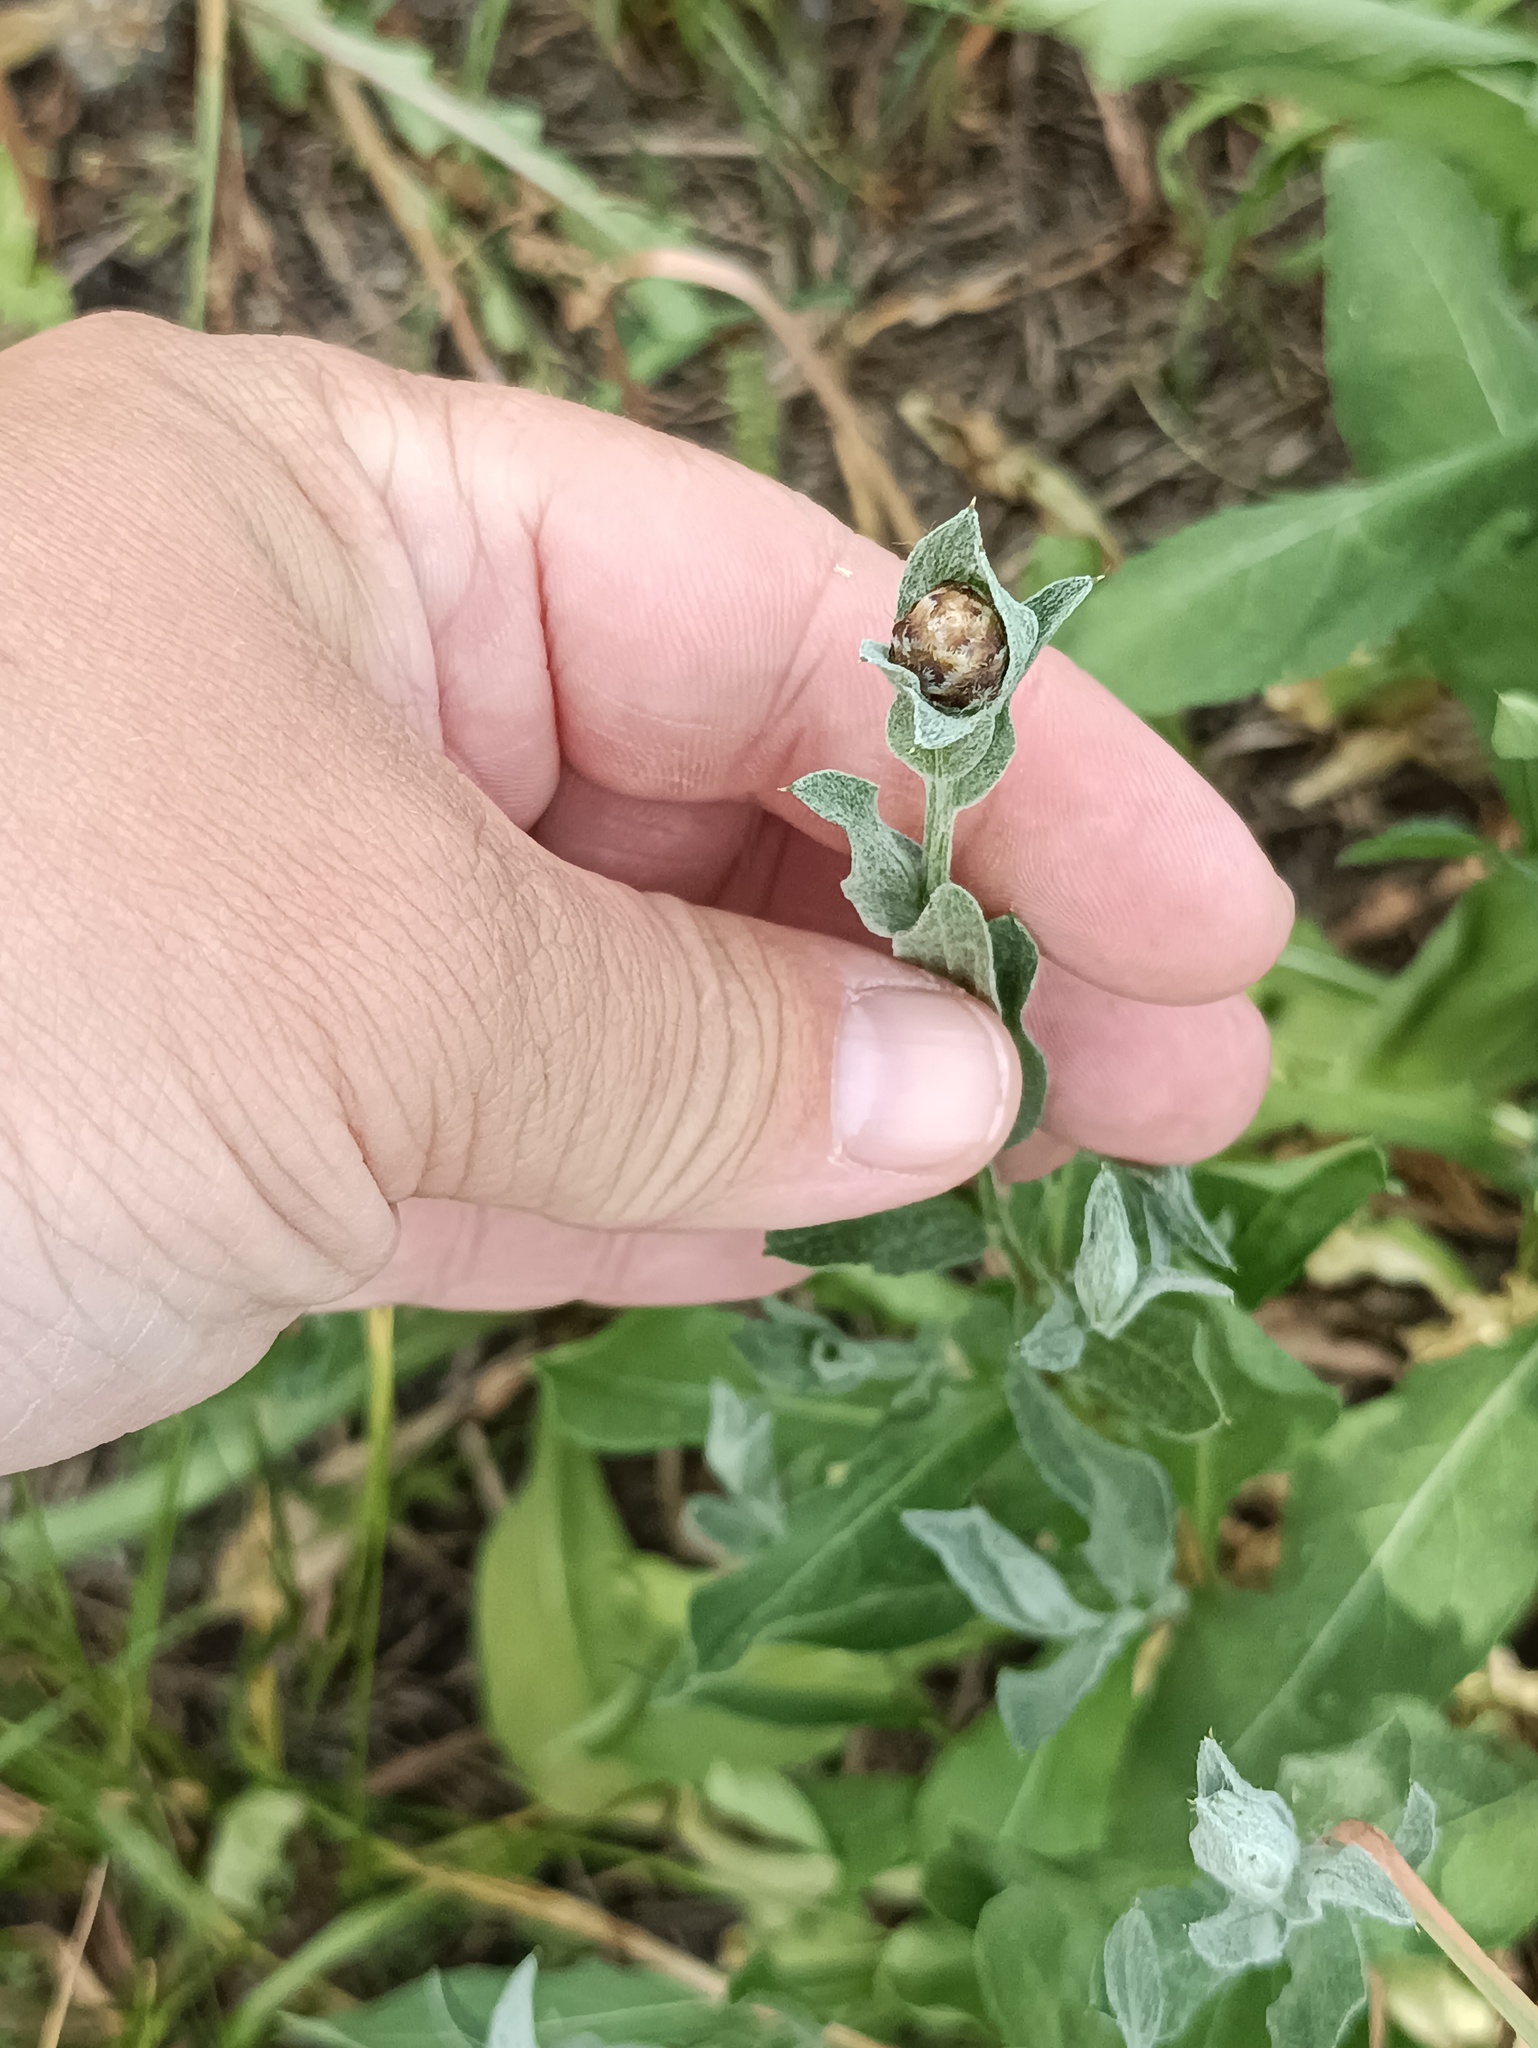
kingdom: Plantae
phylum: Tracheophyta
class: Magnoliopsida
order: Asterales
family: Asteraceae
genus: Centaurea
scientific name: Centaurea jacea
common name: Brown knapweed
